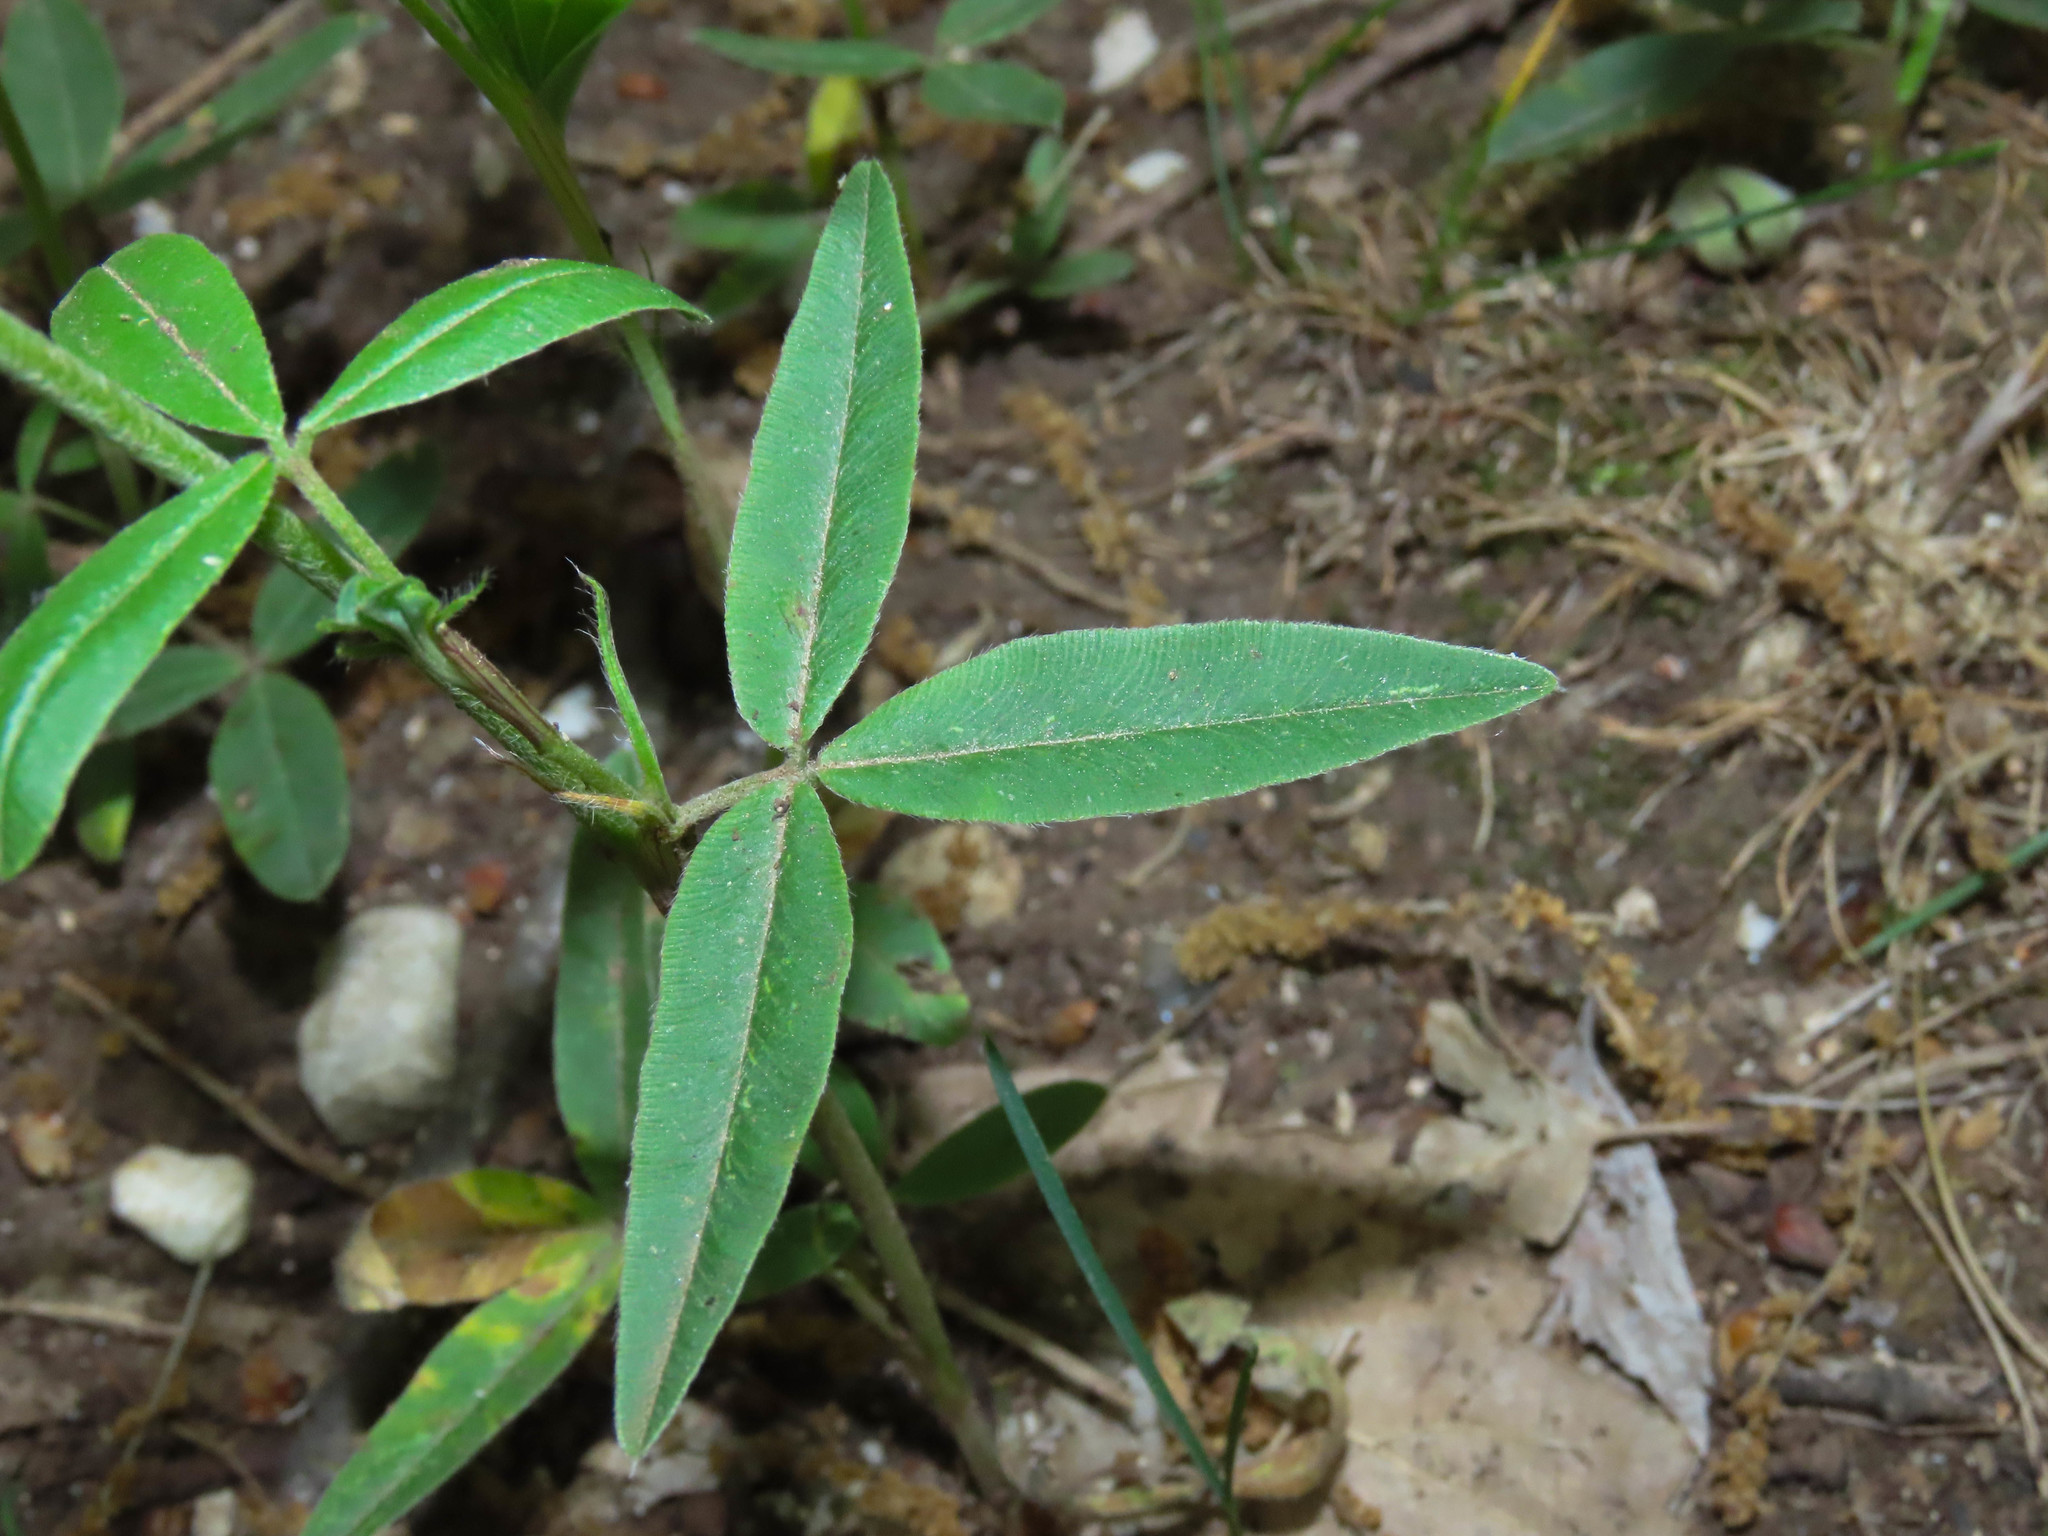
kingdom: Plantae
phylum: Tracheophyta
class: Magnoliopsida
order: Fabales
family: Fabaceae
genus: Trifolium
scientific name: Trifolium alpestre
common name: Owl-head clover
